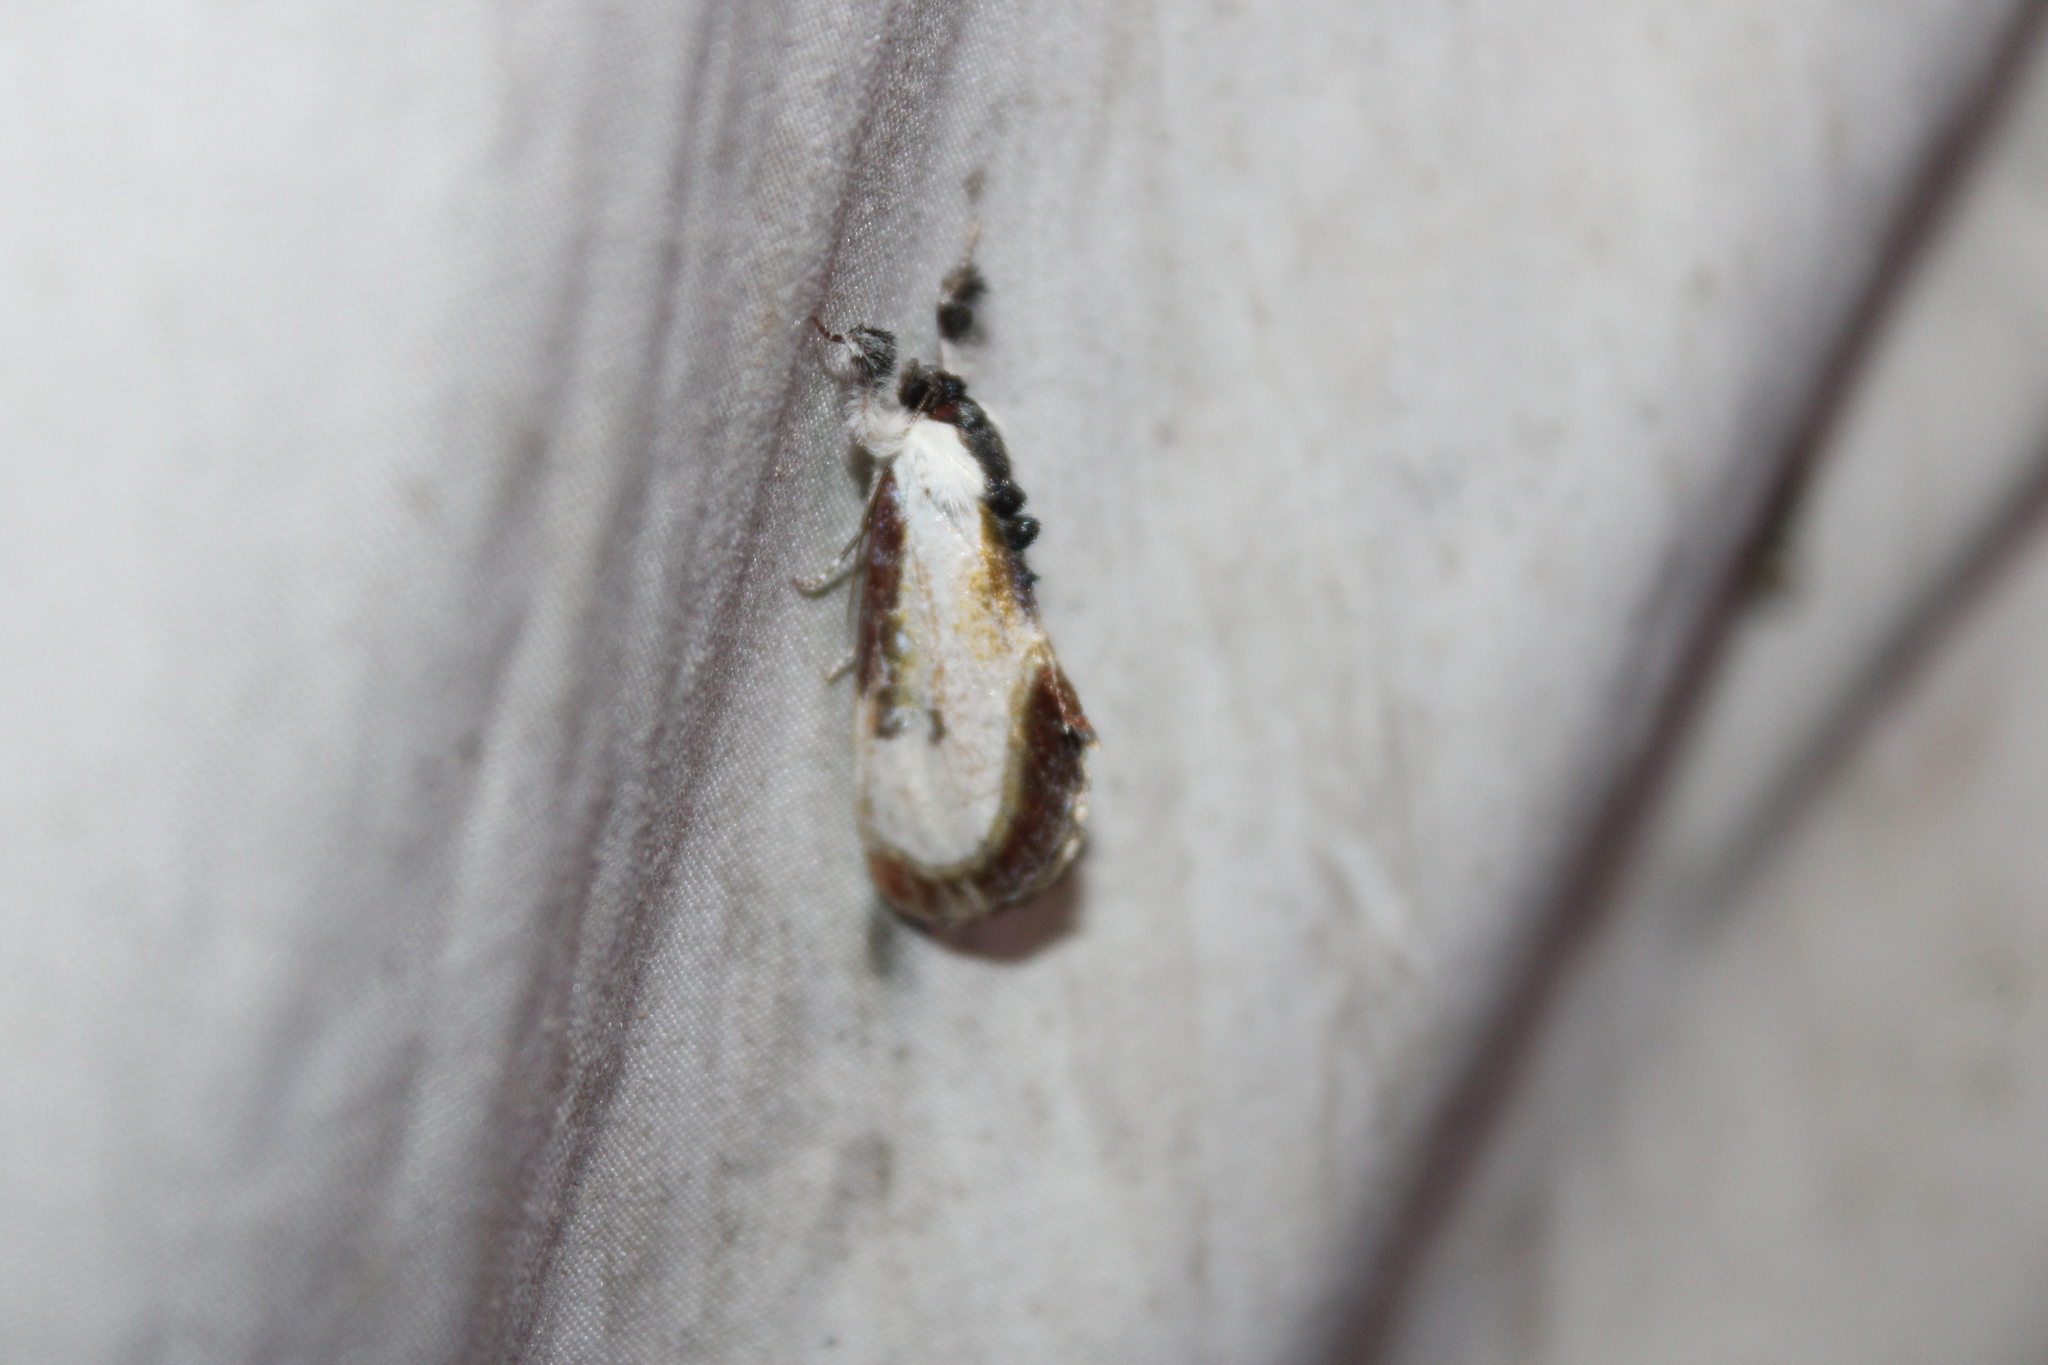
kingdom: Animalia
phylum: Arthropoda
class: Insecta
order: Lepidoptera
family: Noctuidae
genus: Eudryas
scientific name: Eudryas grata
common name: Beautiful wood-nymph
